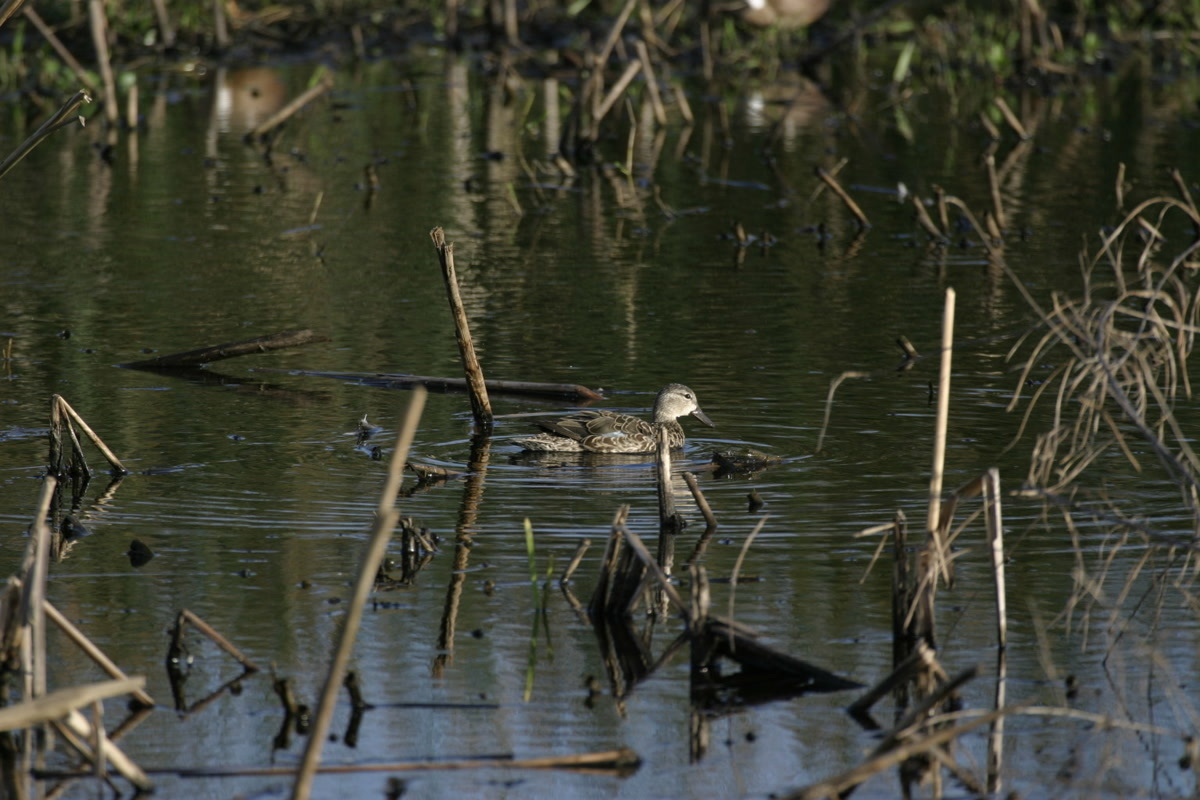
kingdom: Animalia
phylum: Chordata
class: Aves
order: Anseriformes
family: Anatidae
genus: Spatula
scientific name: Spatula discors
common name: Blue-winged teal
